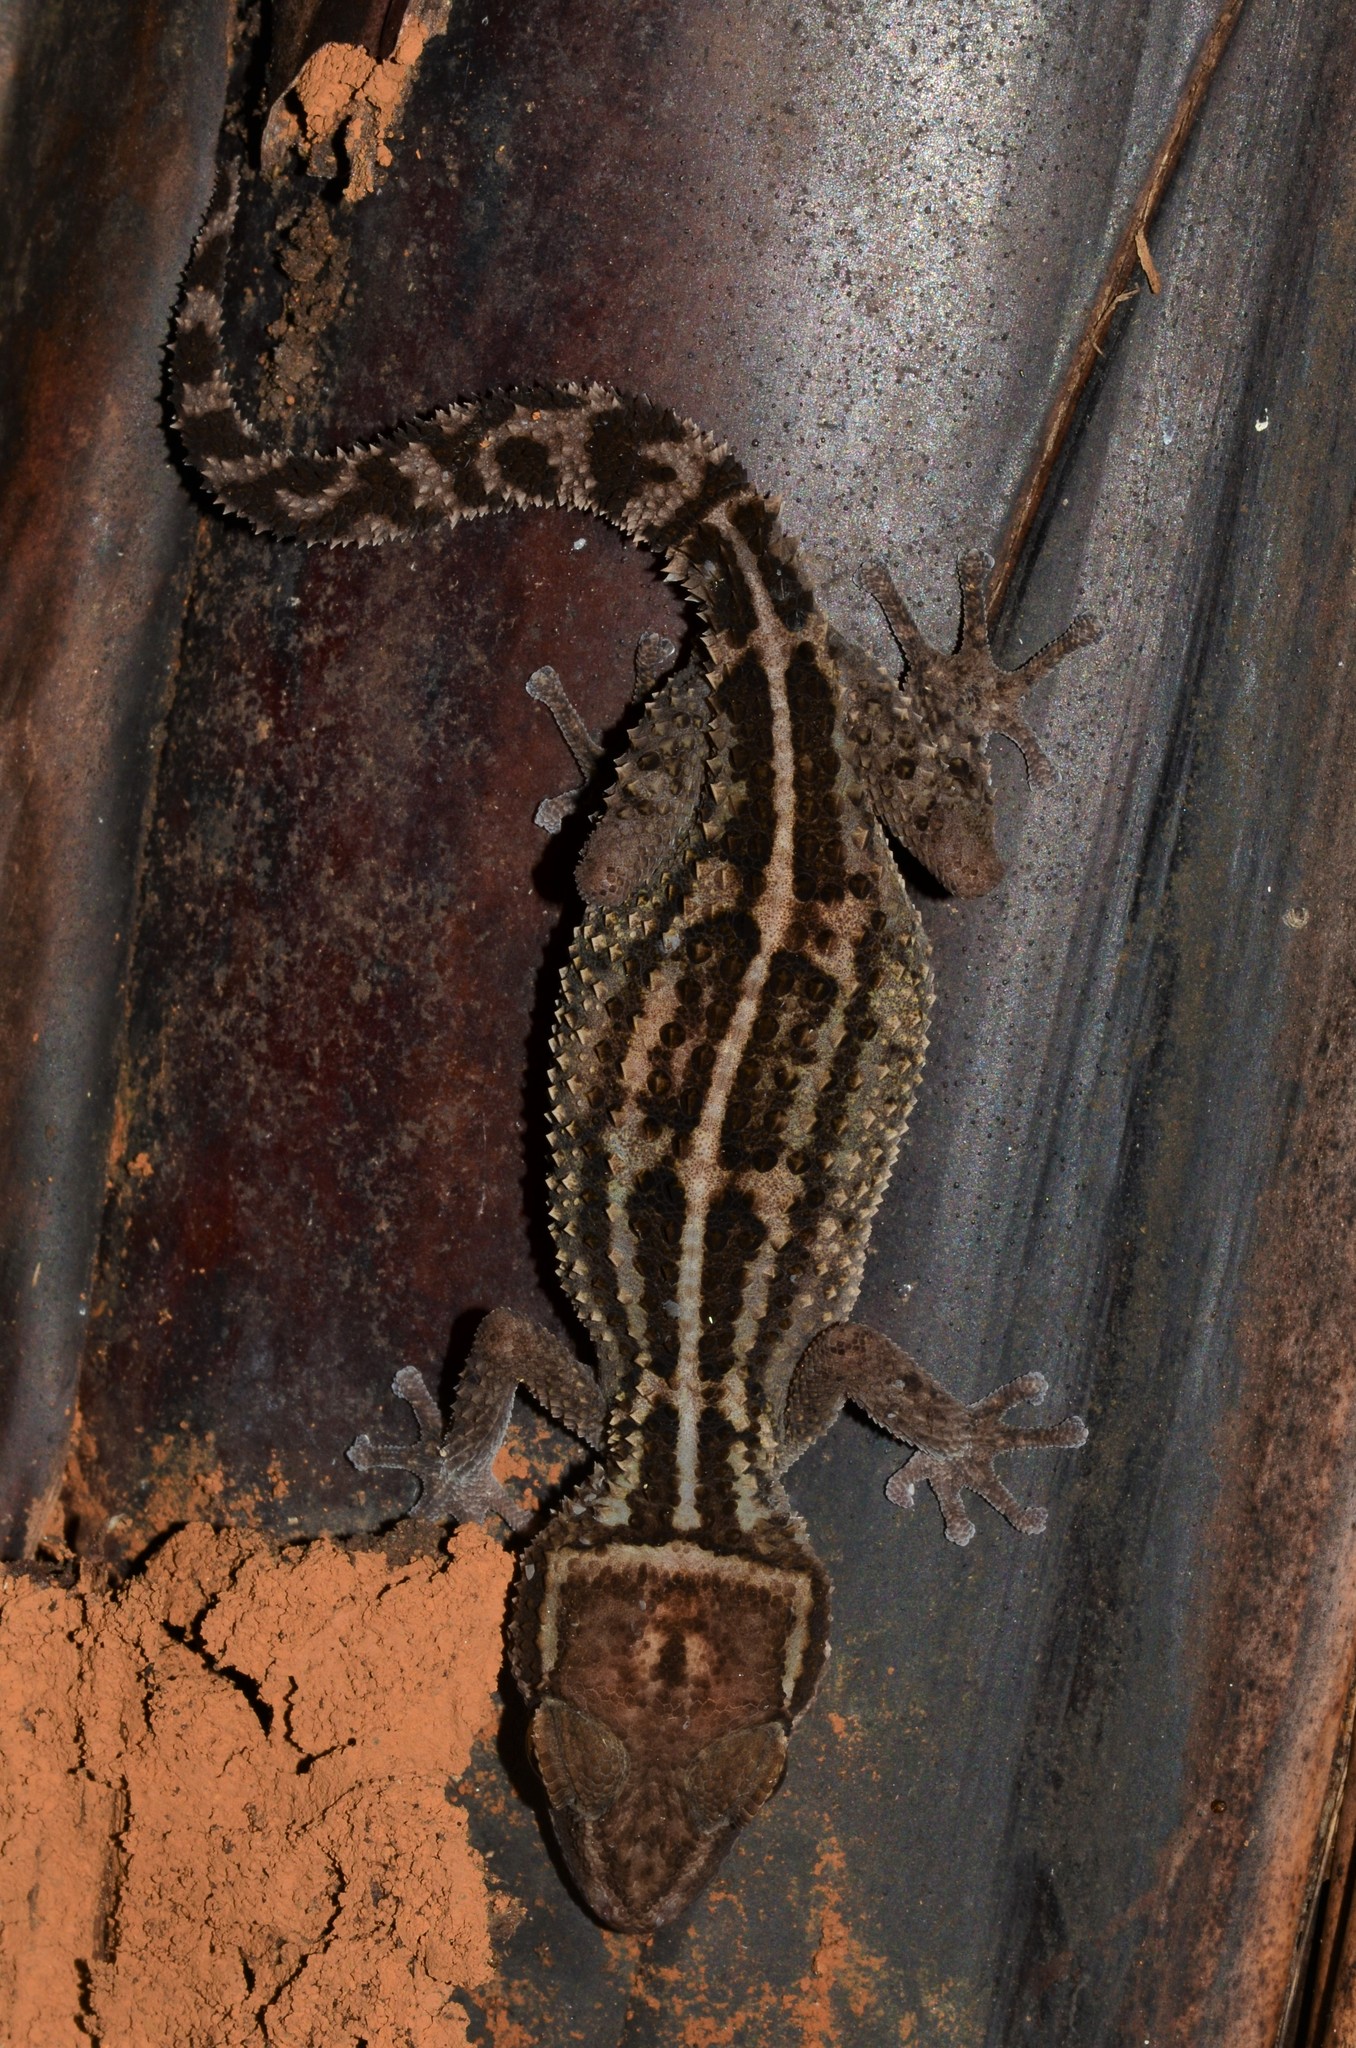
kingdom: Animalia
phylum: Chordata
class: Squamata
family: Gekkonidae
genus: Paroedura
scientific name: Paroedura stumpffi
